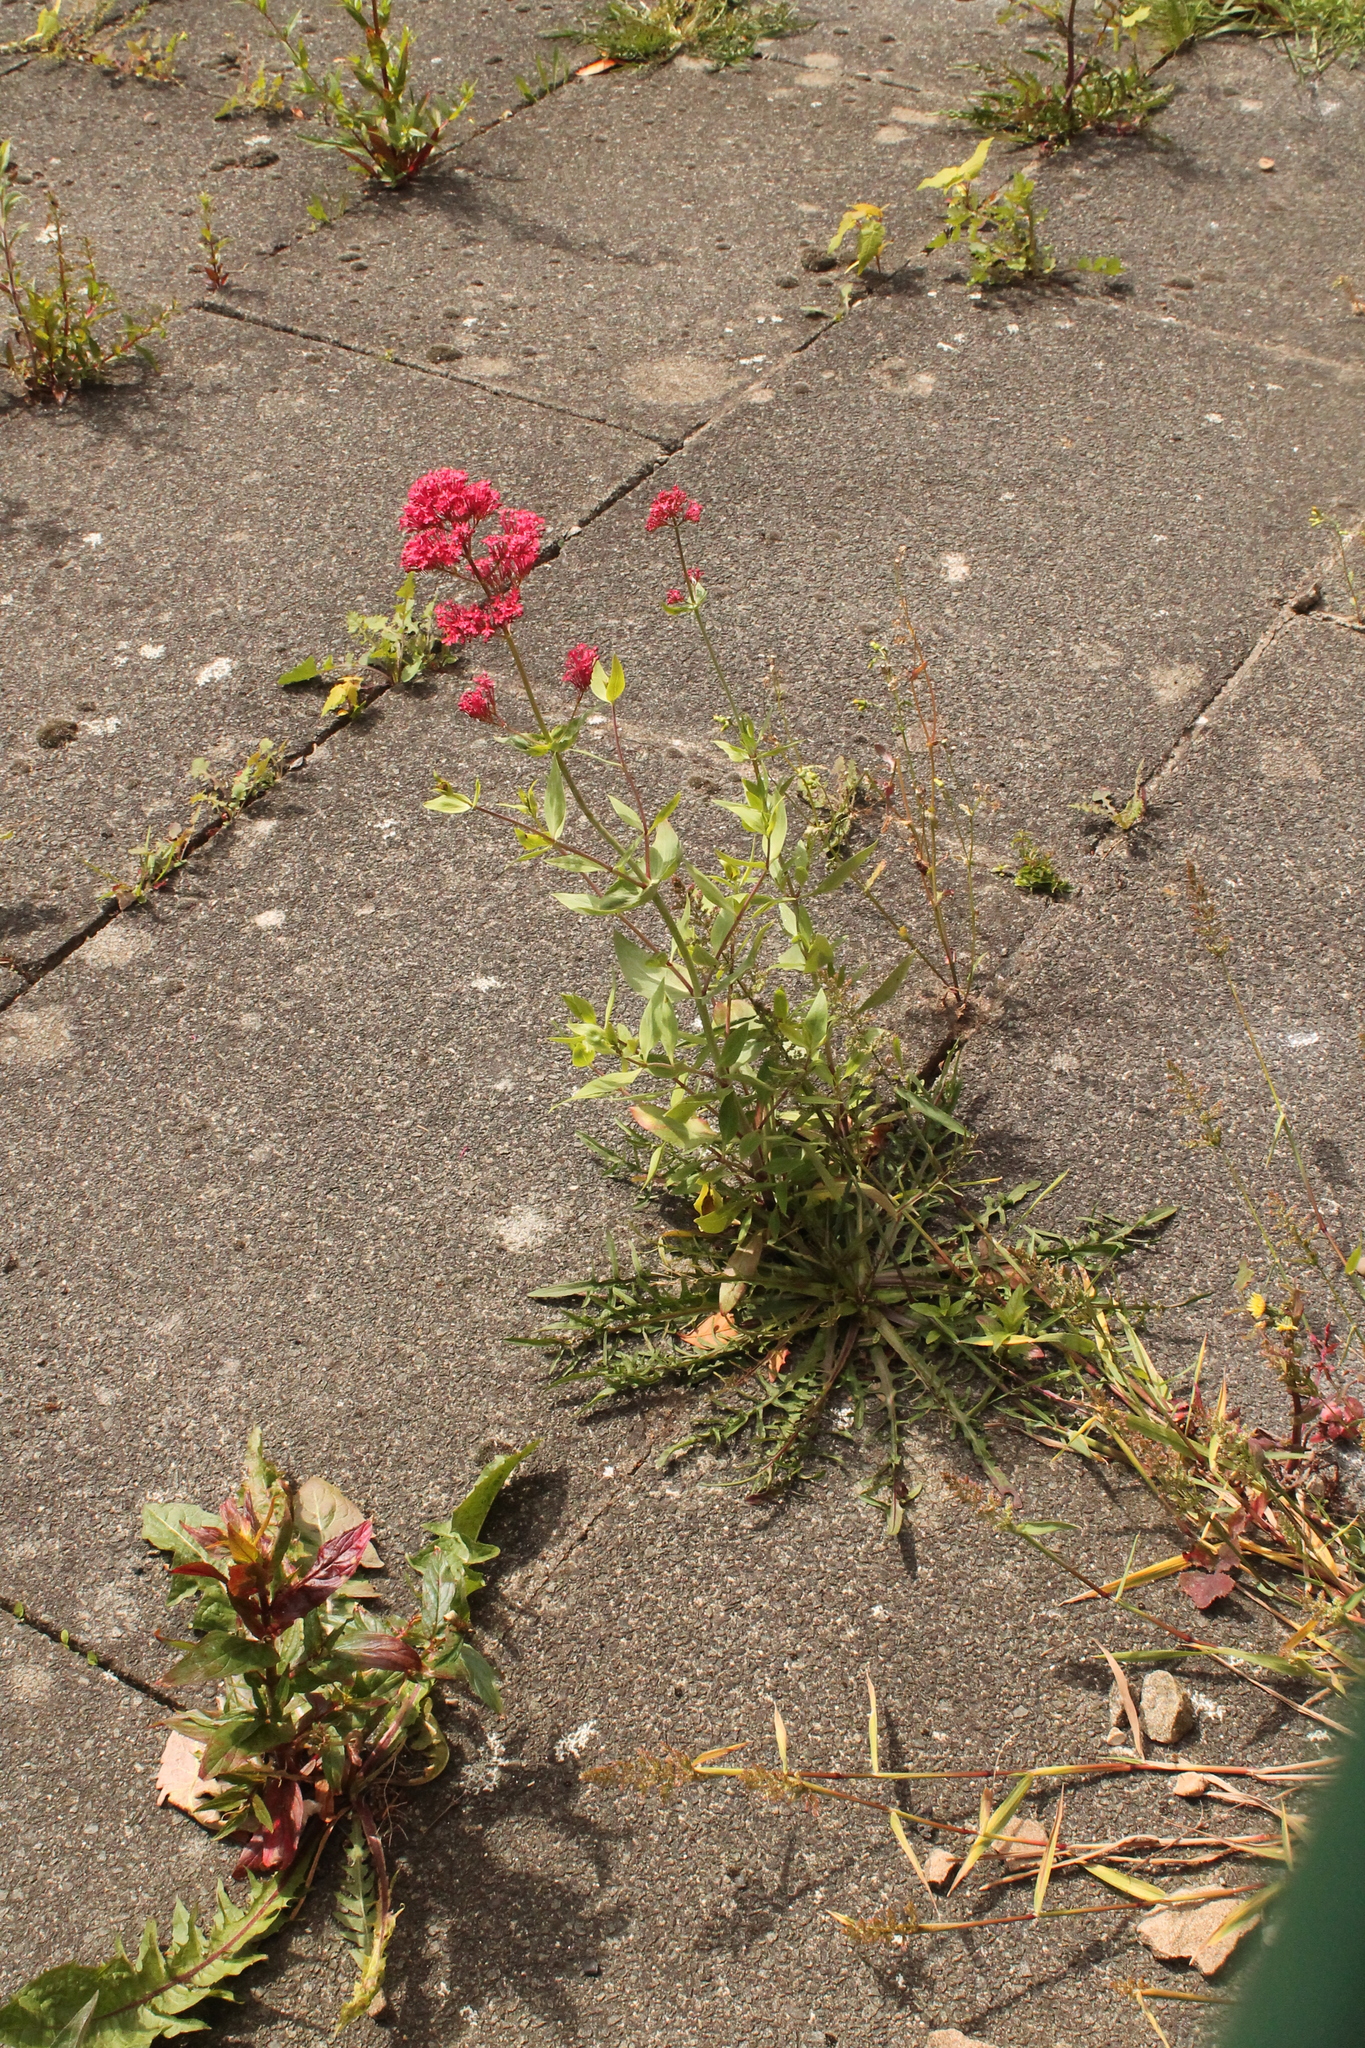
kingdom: Plantae
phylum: Tracheophyta
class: Magnoliopsida
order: Dipsacales
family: Caprifoliaceae
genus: Centranthus
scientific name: Centranthus ruber
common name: Red valerian
